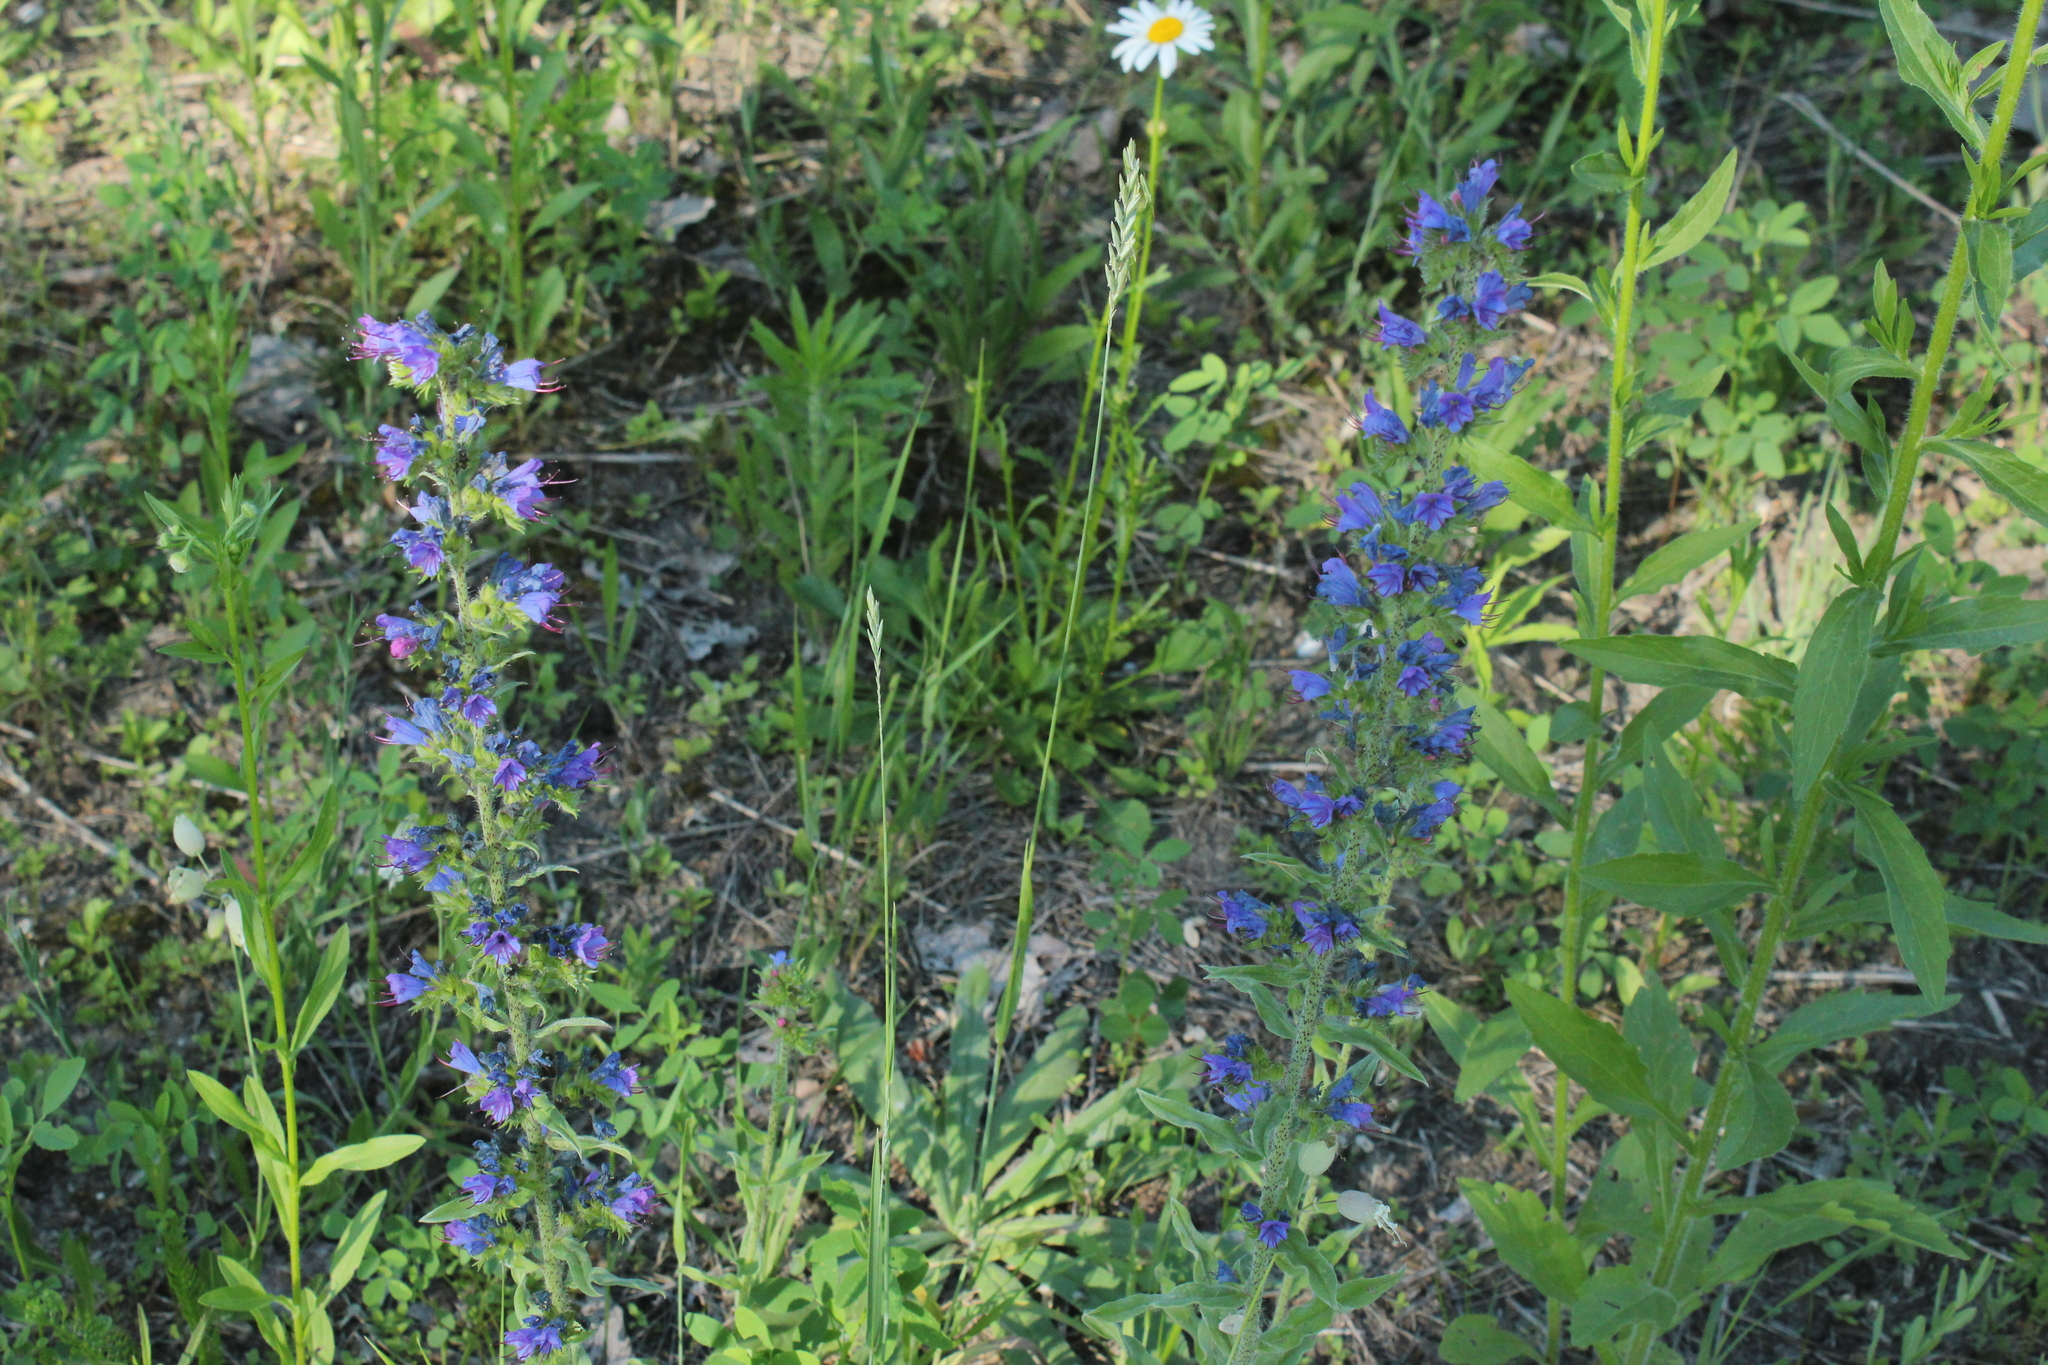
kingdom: Plantae
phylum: Tracheophyta
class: Magnoliopsida
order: Boraginales
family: Boraginaceae
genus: Echium
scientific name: Echium vulgare
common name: Common viper's bugloss
